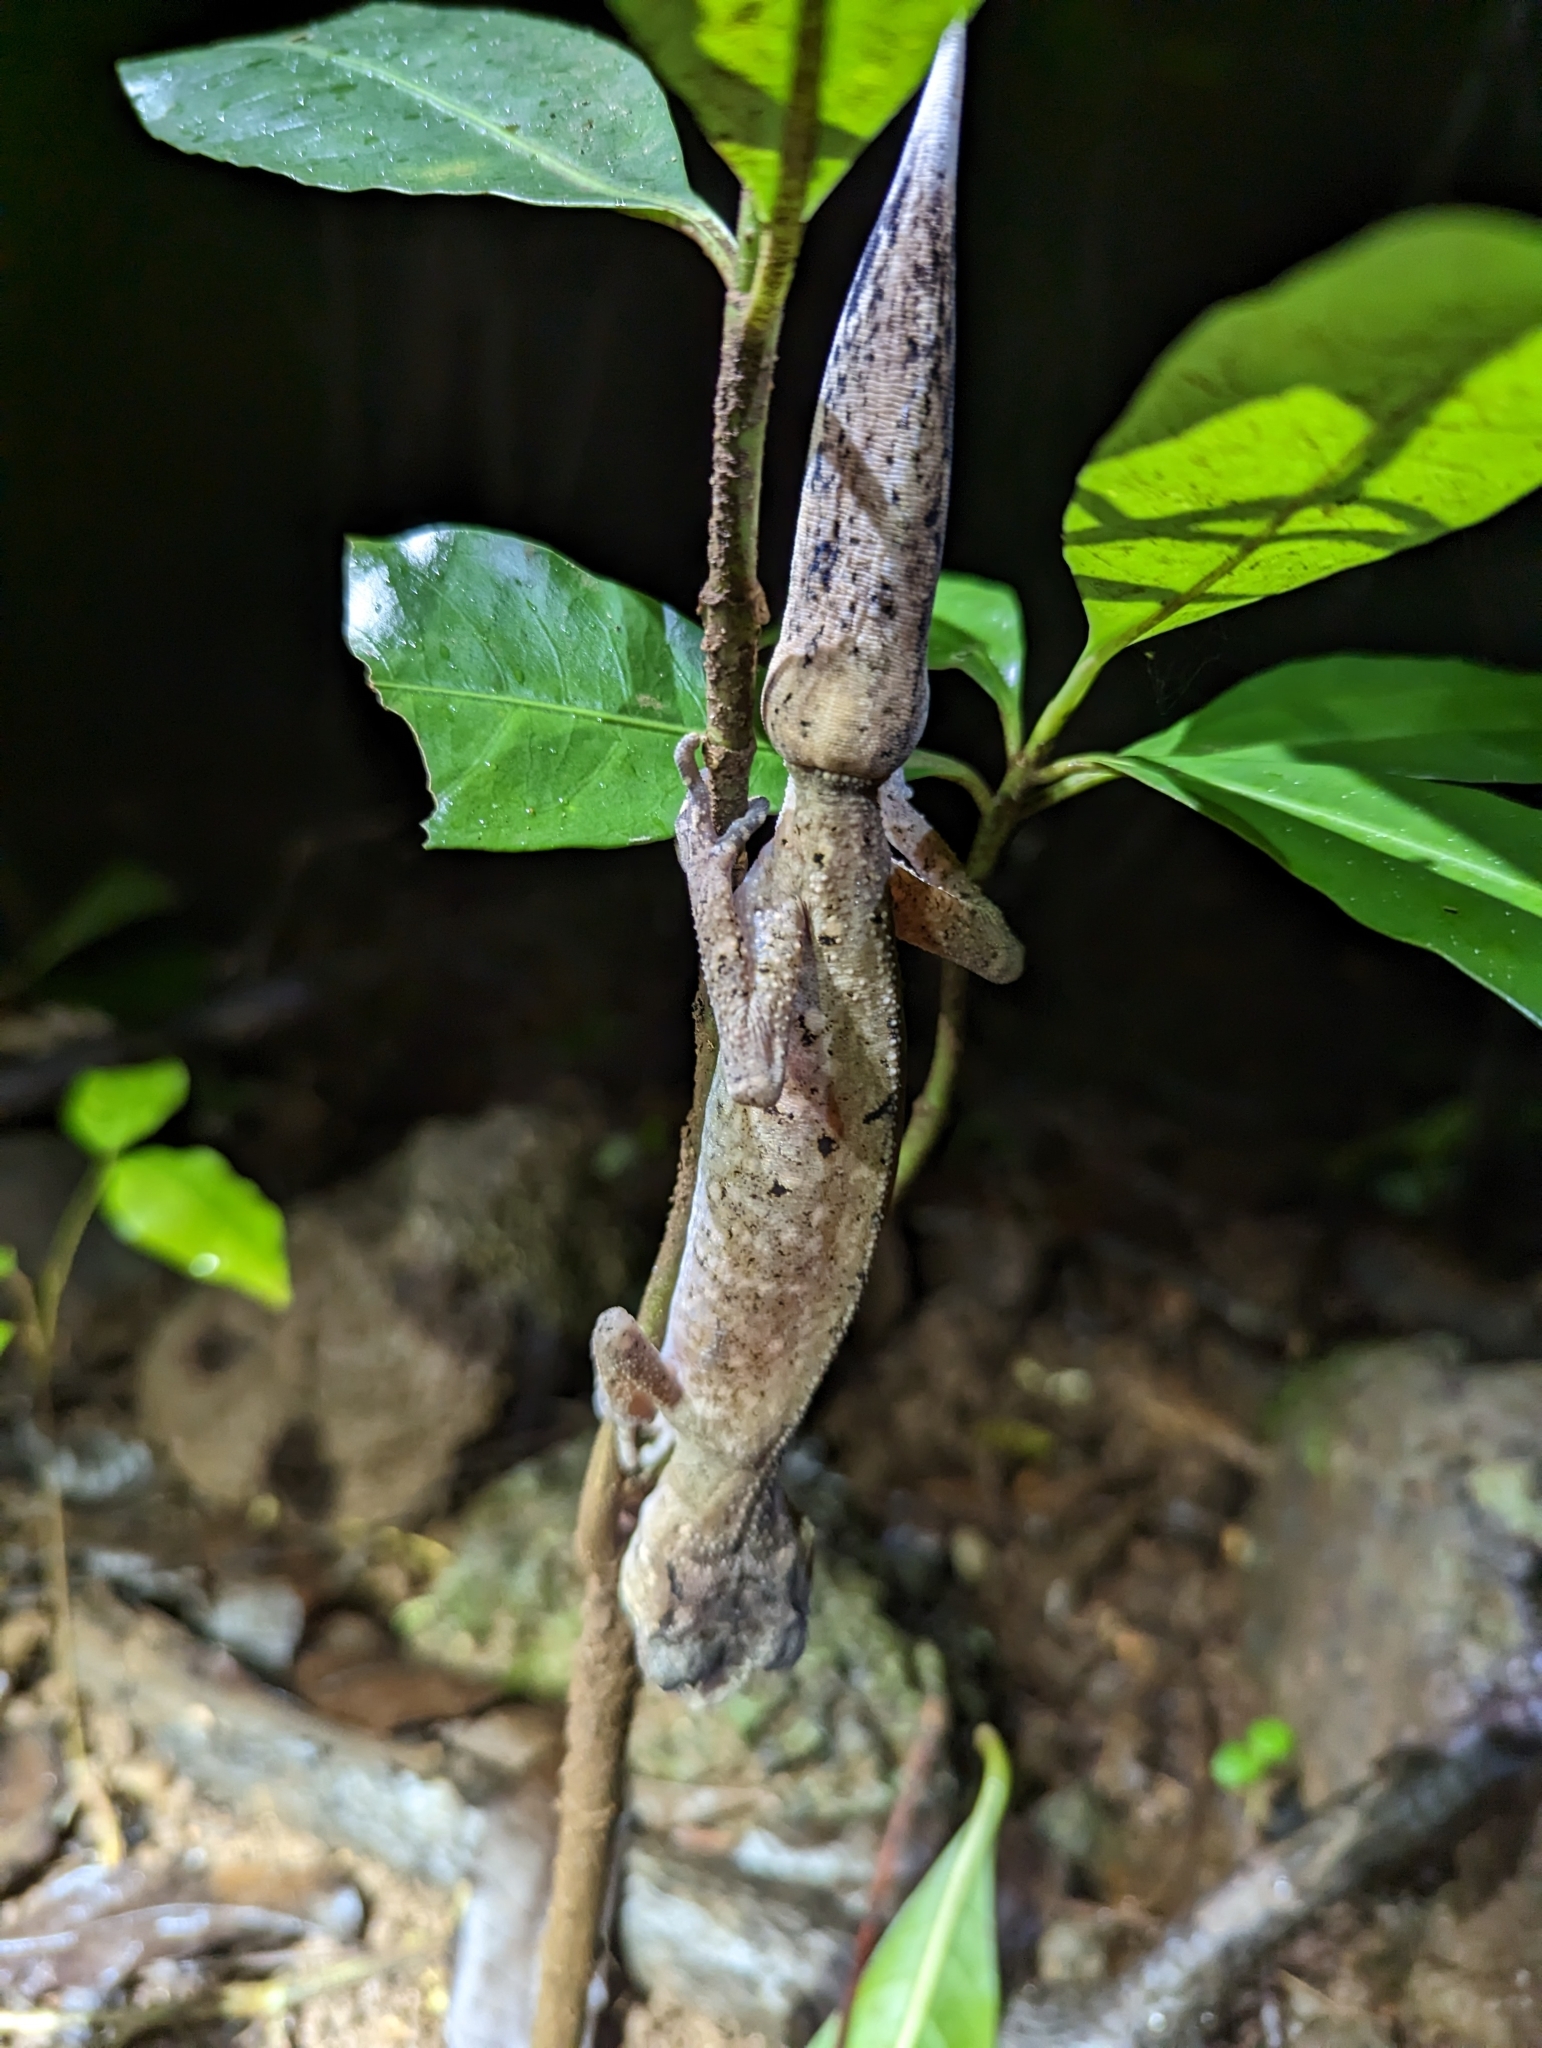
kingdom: Animalia
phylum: Chordata
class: Squamata
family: Carphodactylidae
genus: Carphodactylus
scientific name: Carphodactylus laevis
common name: Chameleon gecko
